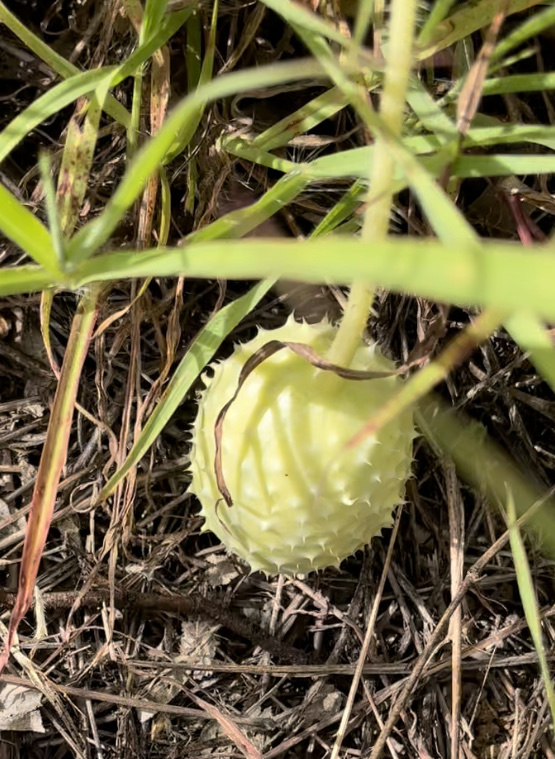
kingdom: Plantae
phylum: Tracheophyta
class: Magnoliopsida
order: Cucurbitales
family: Cucurbitaceae
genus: Cucumis
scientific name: Cucumis anguria
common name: West indian gherkin
